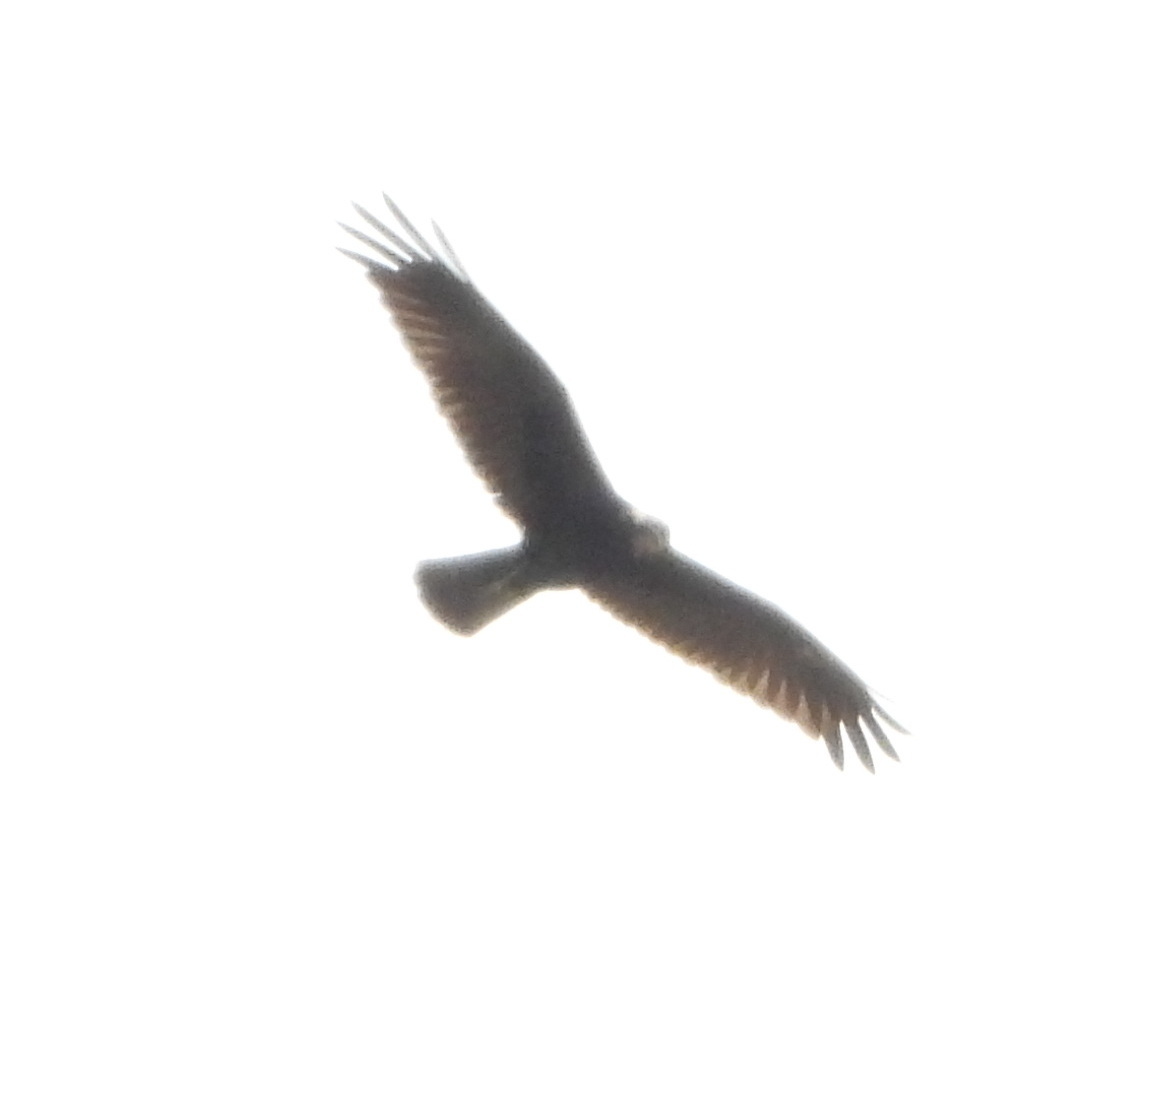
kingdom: Animalia
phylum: Chordata
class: Aves
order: Accipitriformes
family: Accipitridae
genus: Circus
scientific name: Circus aeruginosus
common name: Western marsh harrier
